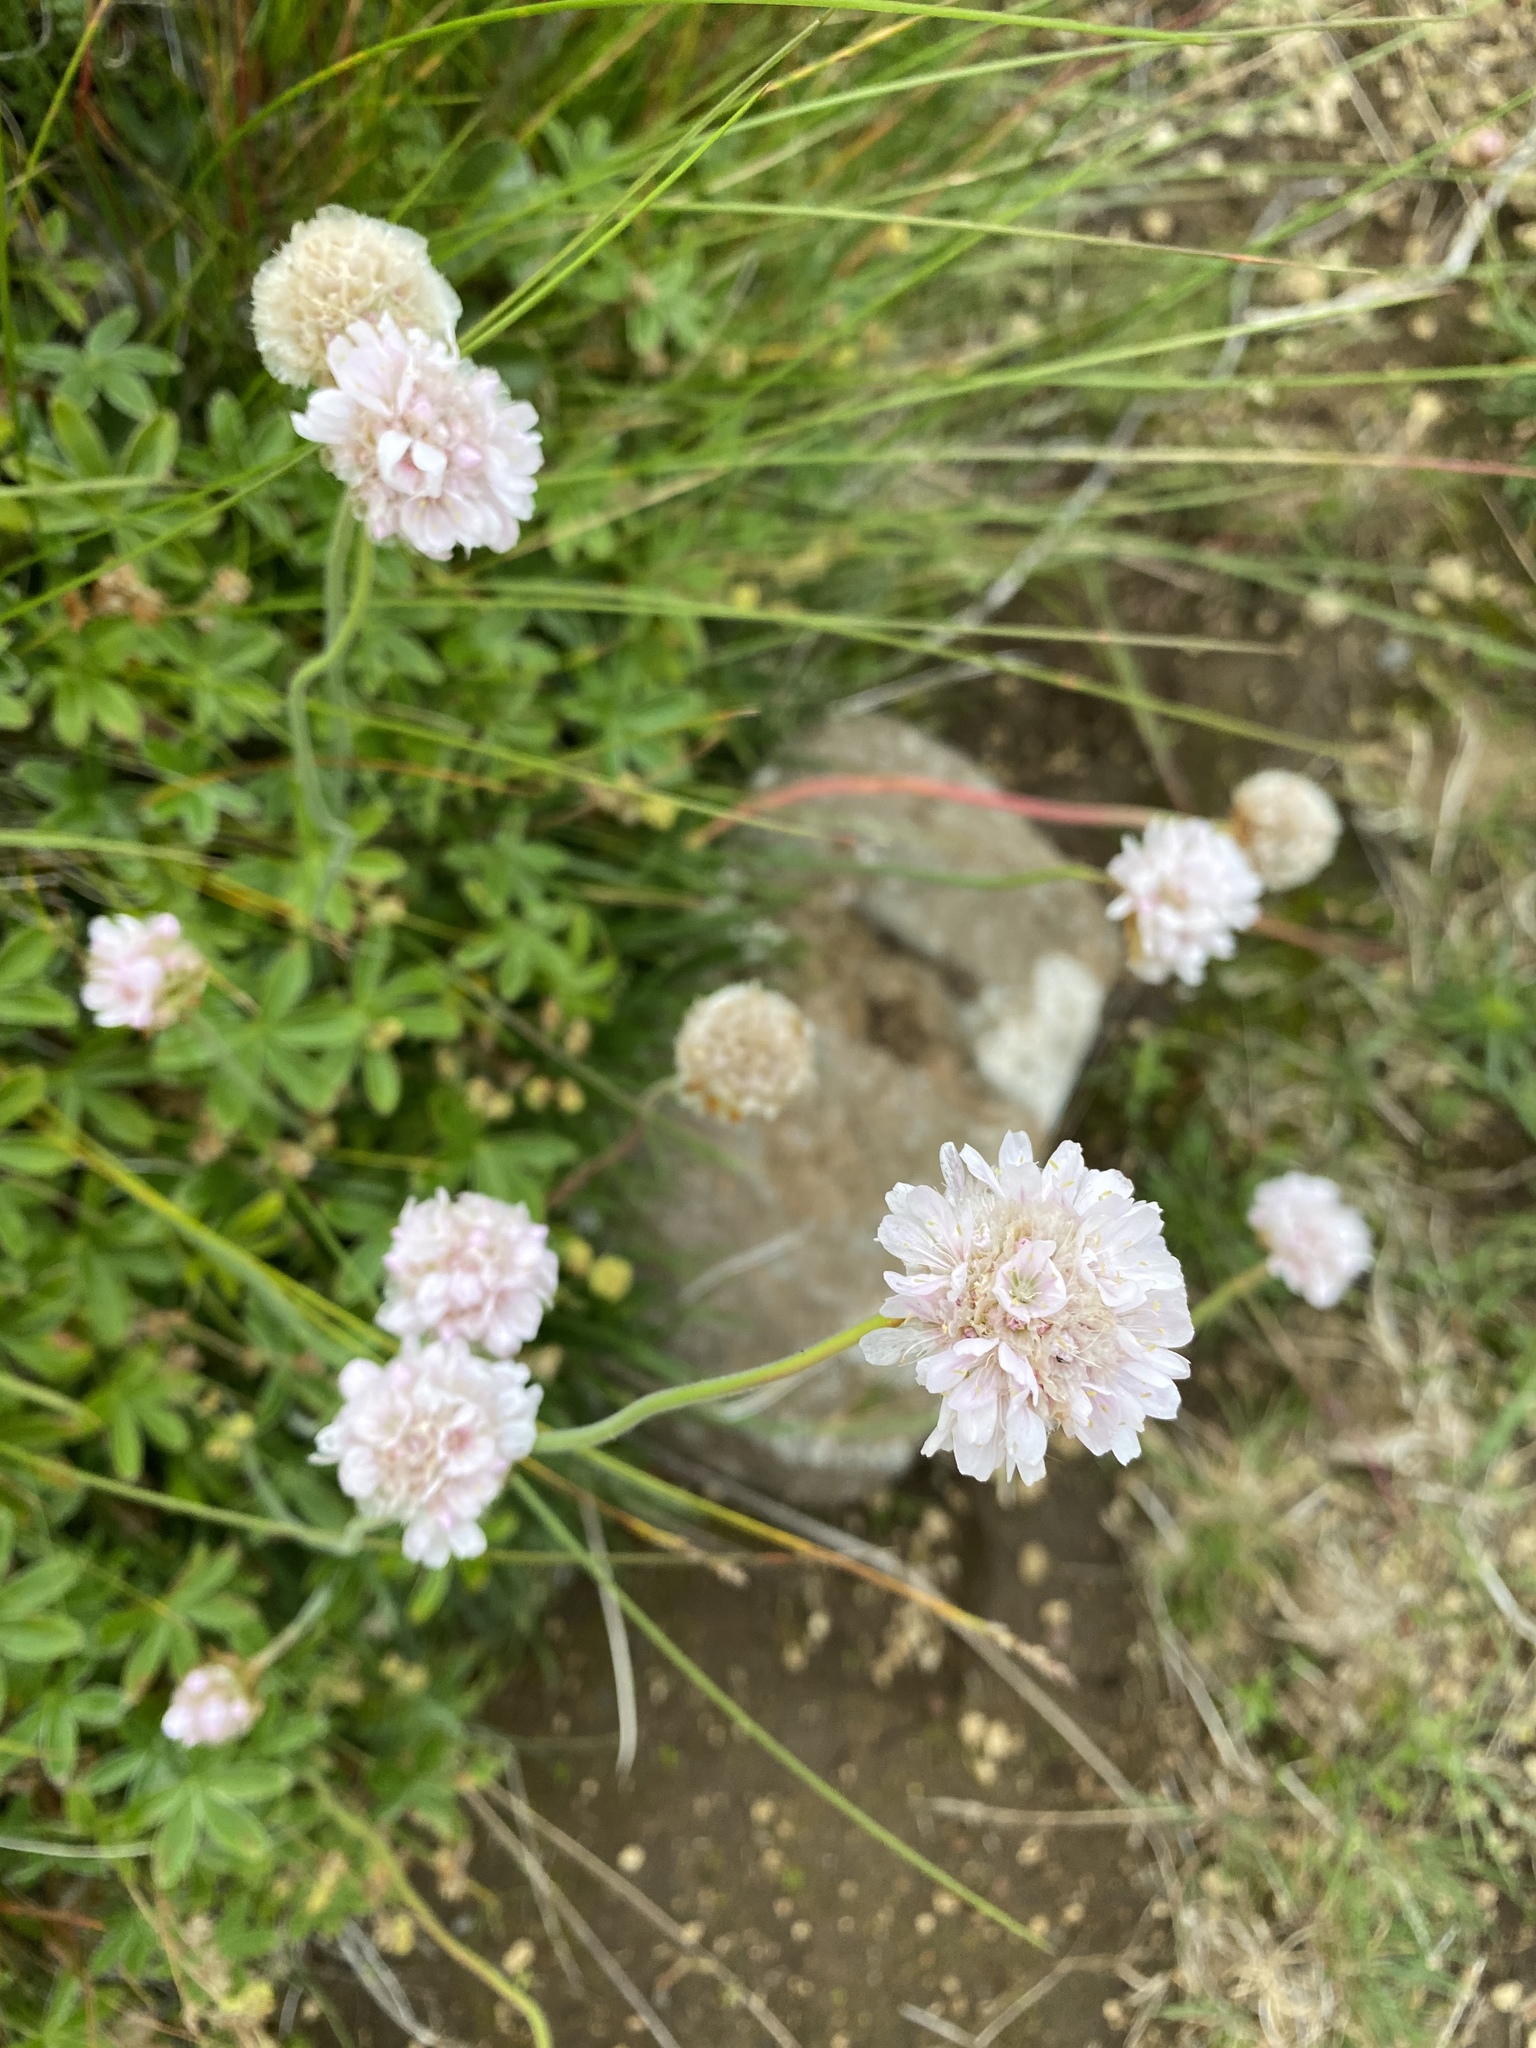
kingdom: Plantae
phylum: Tracheophyta
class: Magnoliopsida
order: Caryophyllales
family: Plumbaginaceae
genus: Armeria
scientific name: Armeria maritima
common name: Thrift
